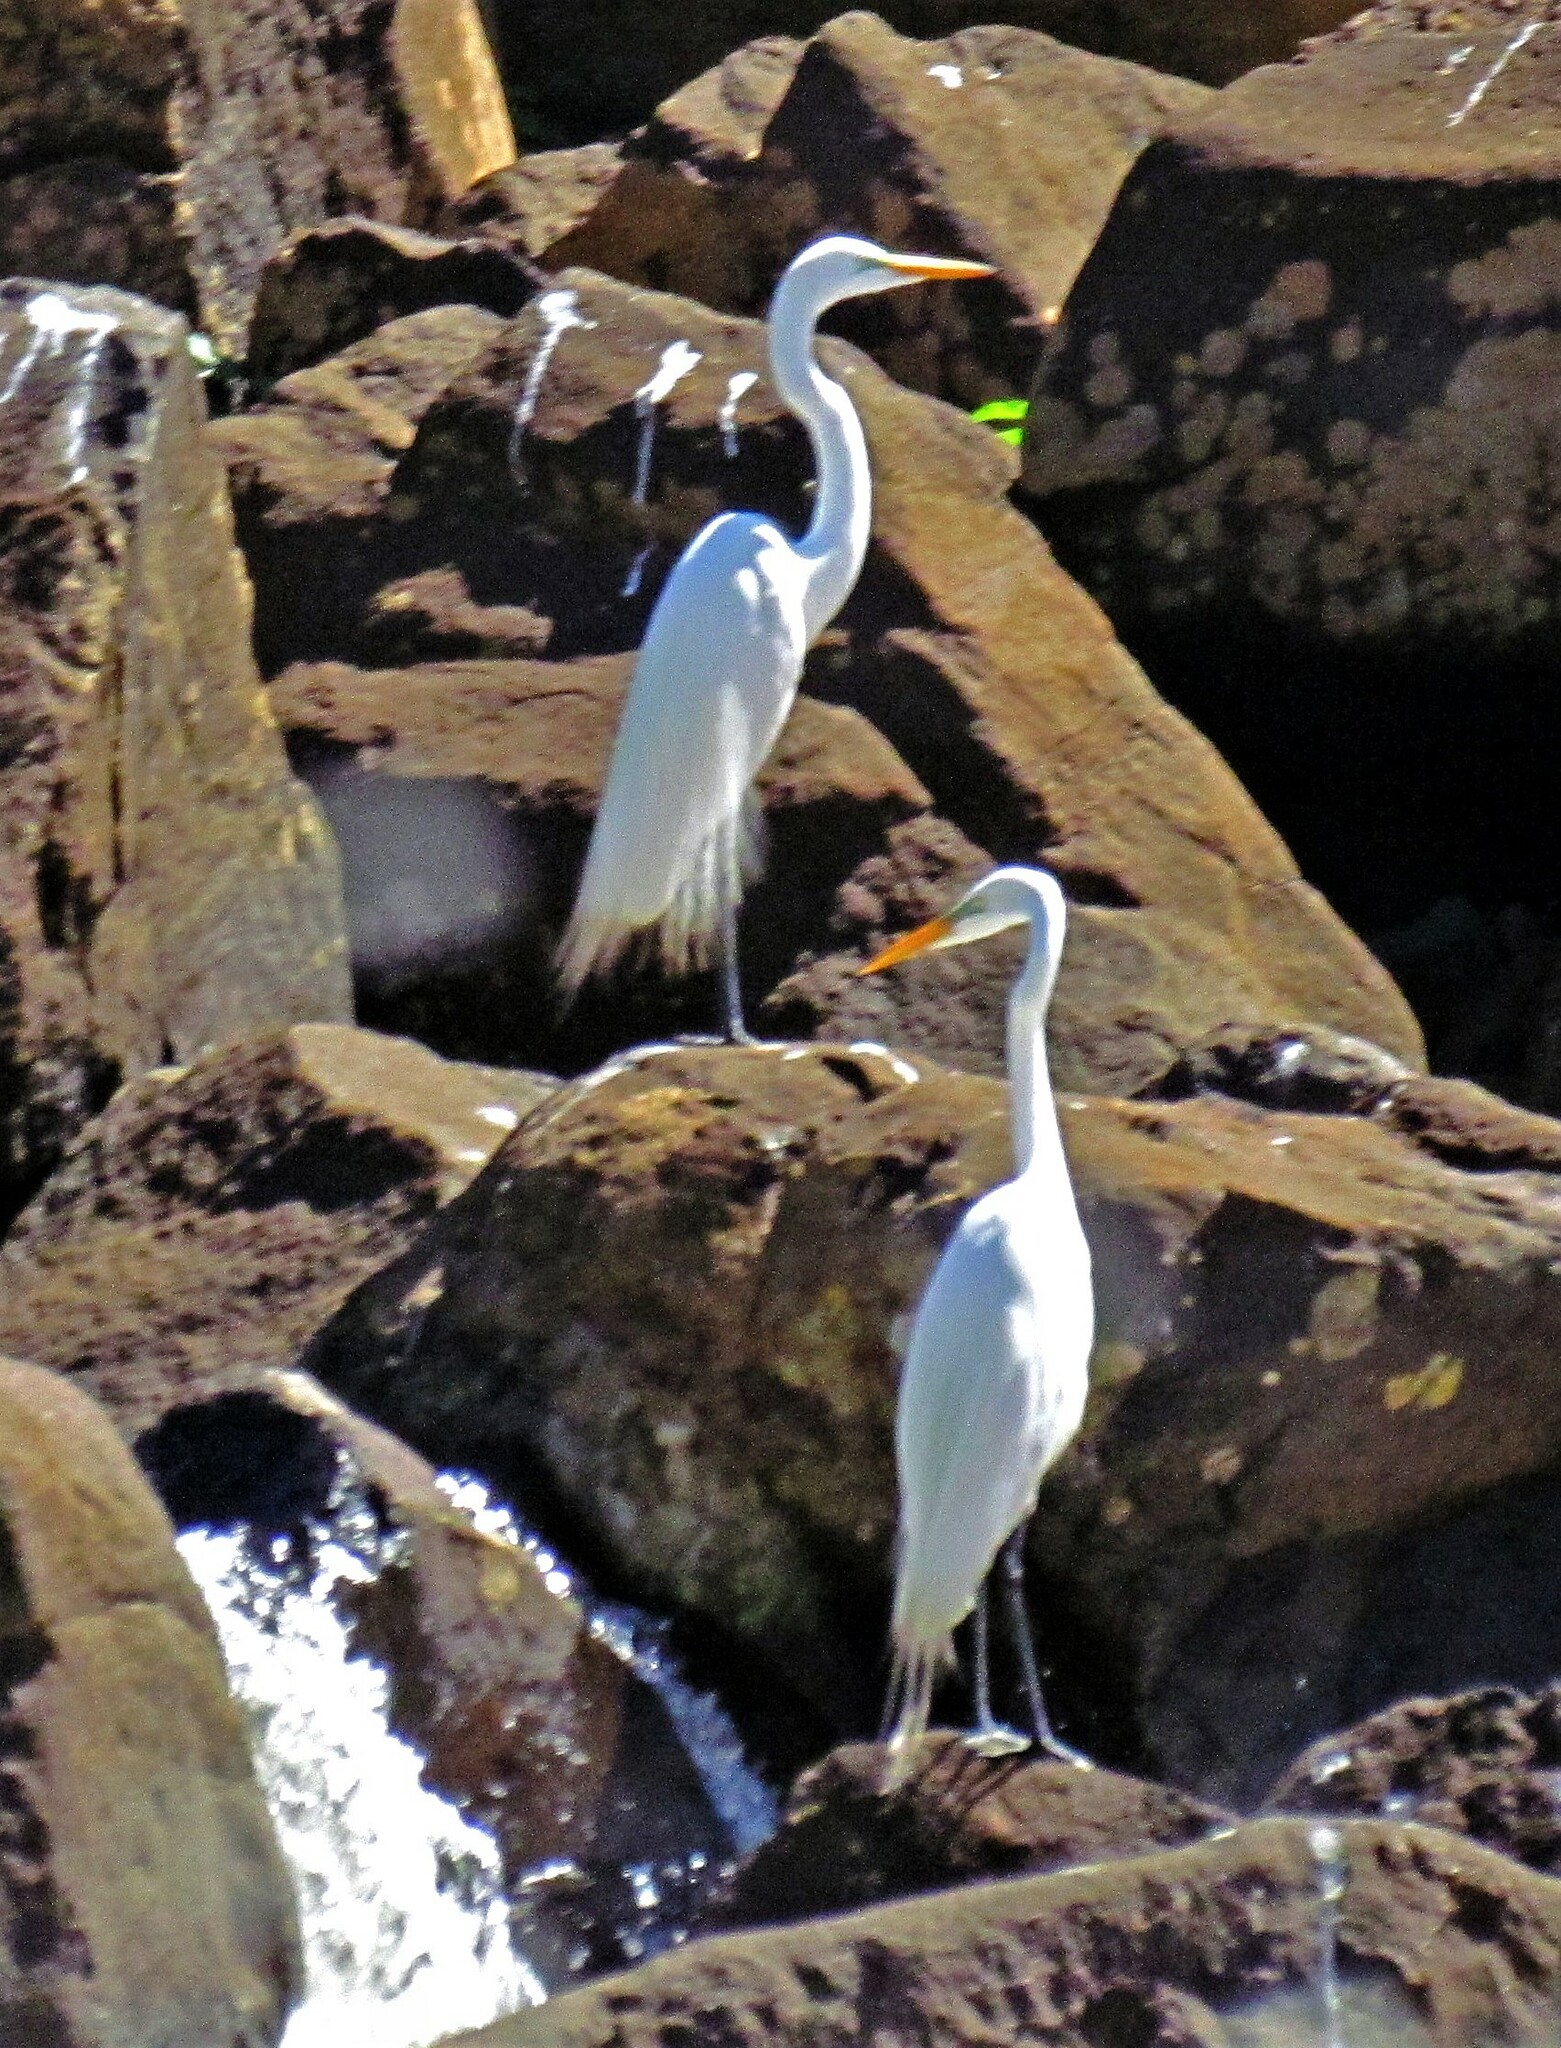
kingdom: Animalia
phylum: Chordata
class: Aves
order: Pelecaniformes
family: Ardeidae
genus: Ardea
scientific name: Ardea alba
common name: Great egret
